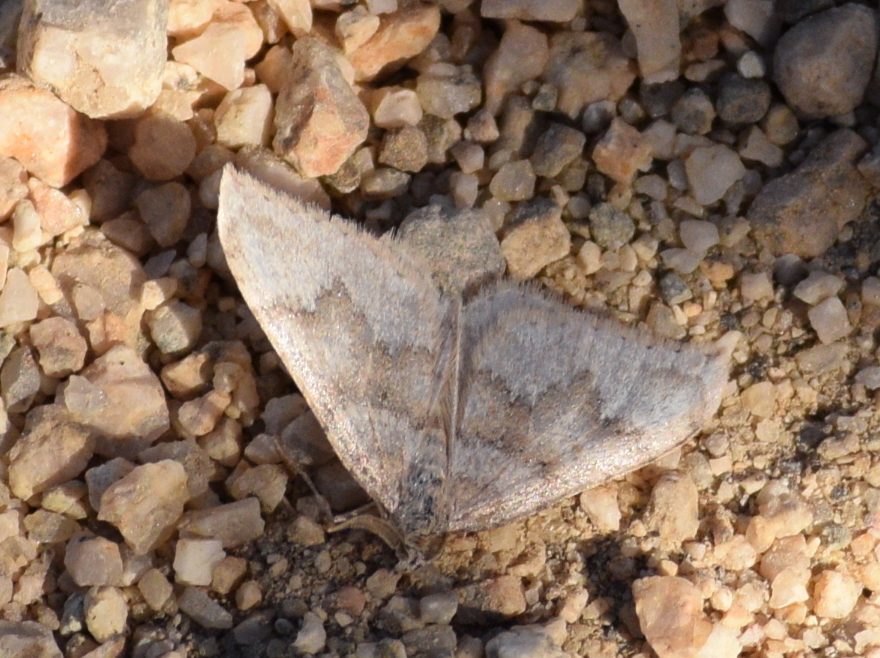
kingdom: Animalia
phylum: Arthropoda
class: Insecta
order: Lepidoptera
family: Geometridae
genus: Zenophleps
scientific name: Zenophleps pallescens
